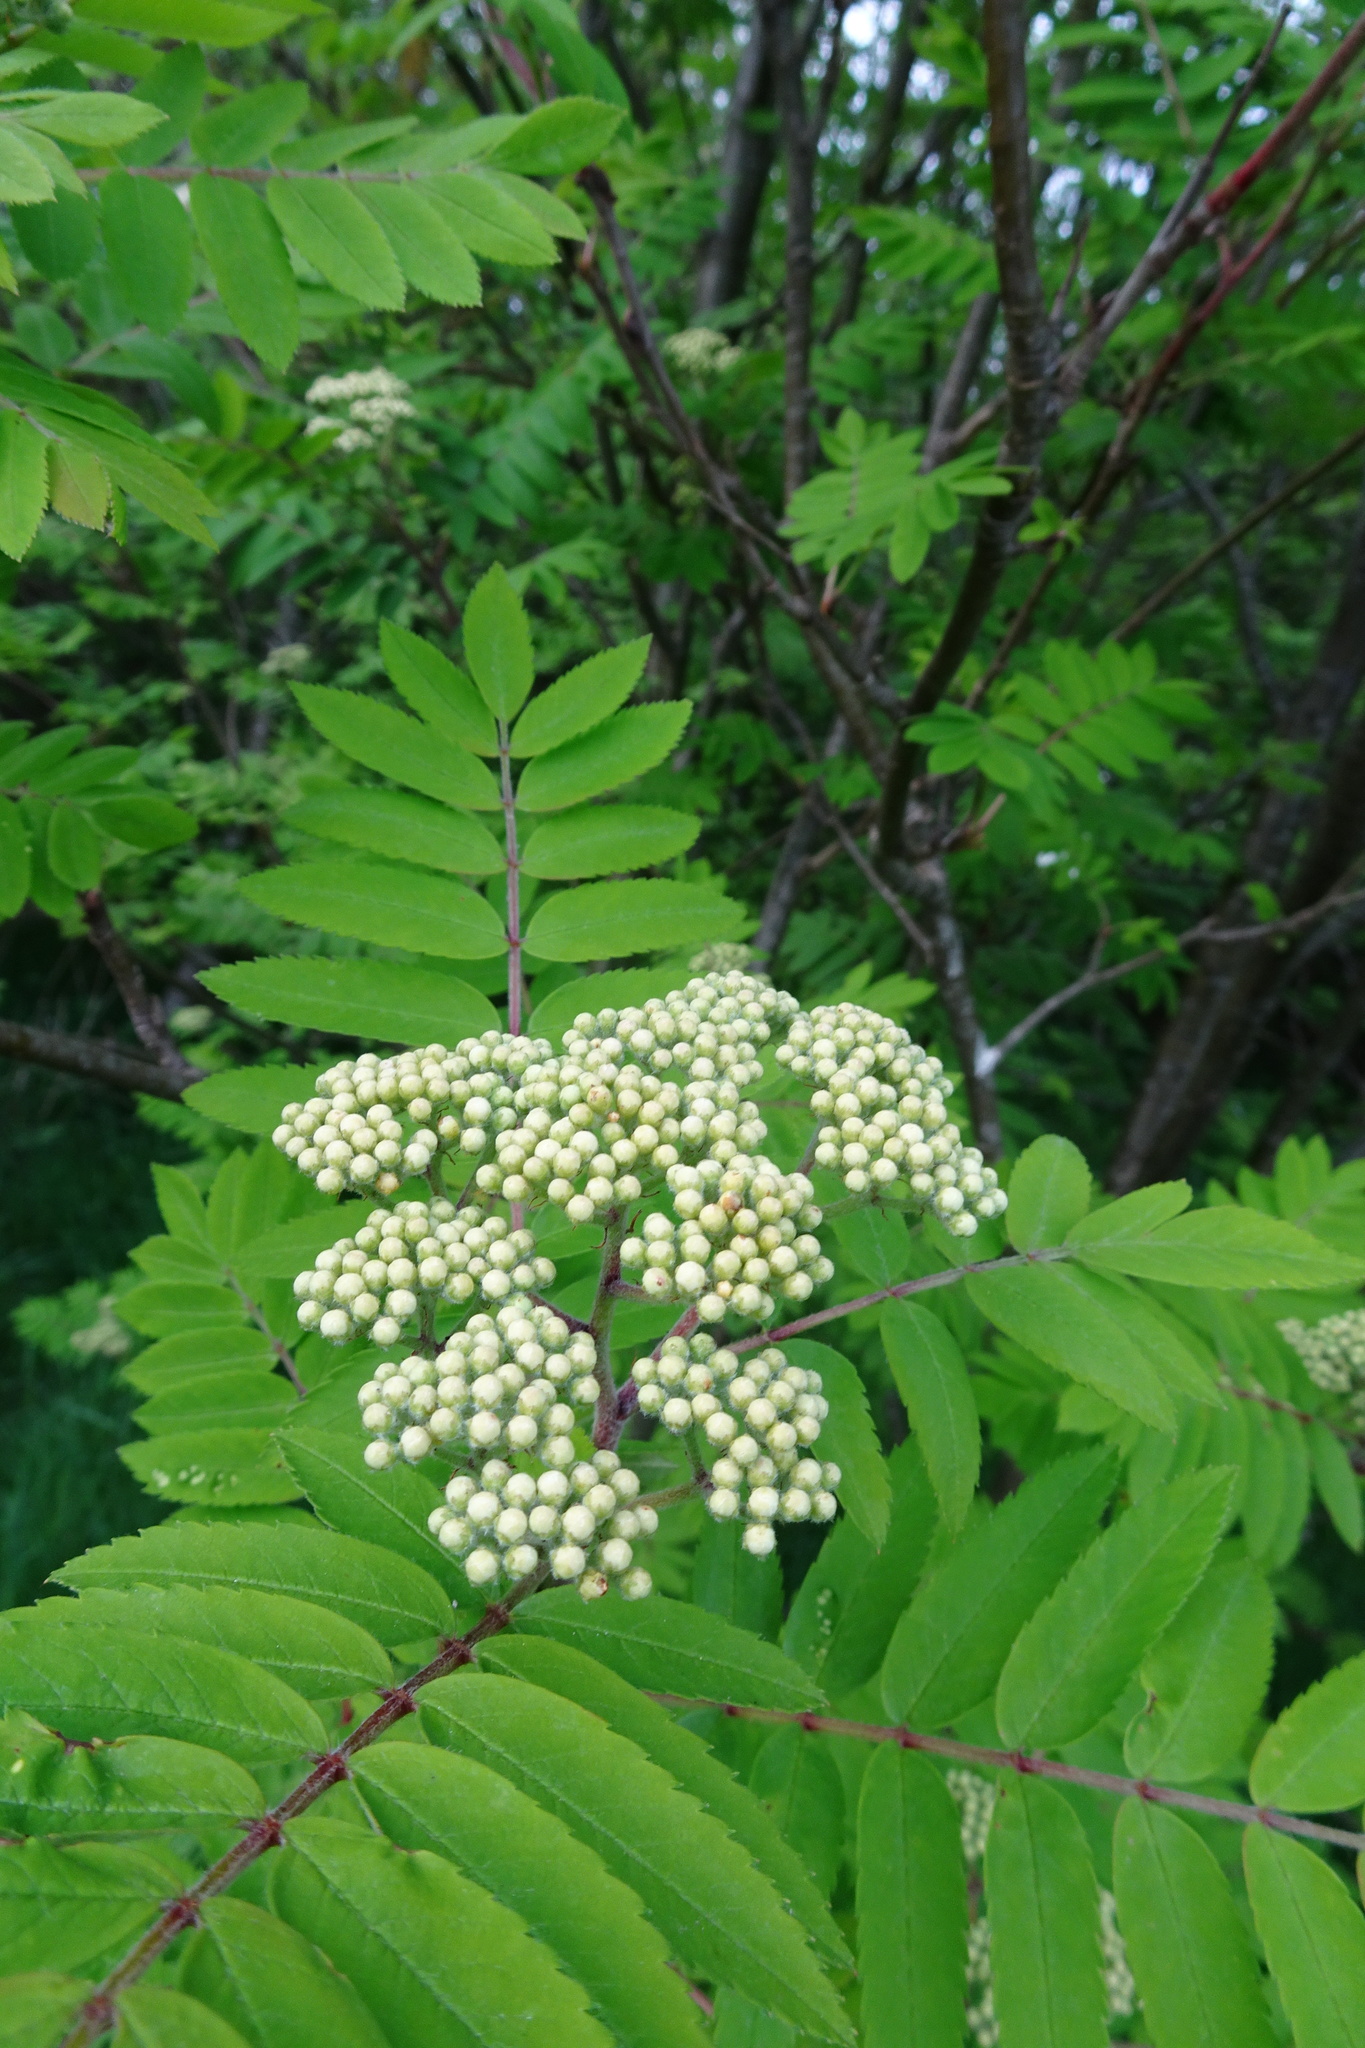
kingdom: Plantae
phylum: Tracheophyta
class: Magnoliopsida
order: Rosales
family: Rosaceae
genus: Sorbus
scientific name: Sorbus aucuparia
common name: Rowan
